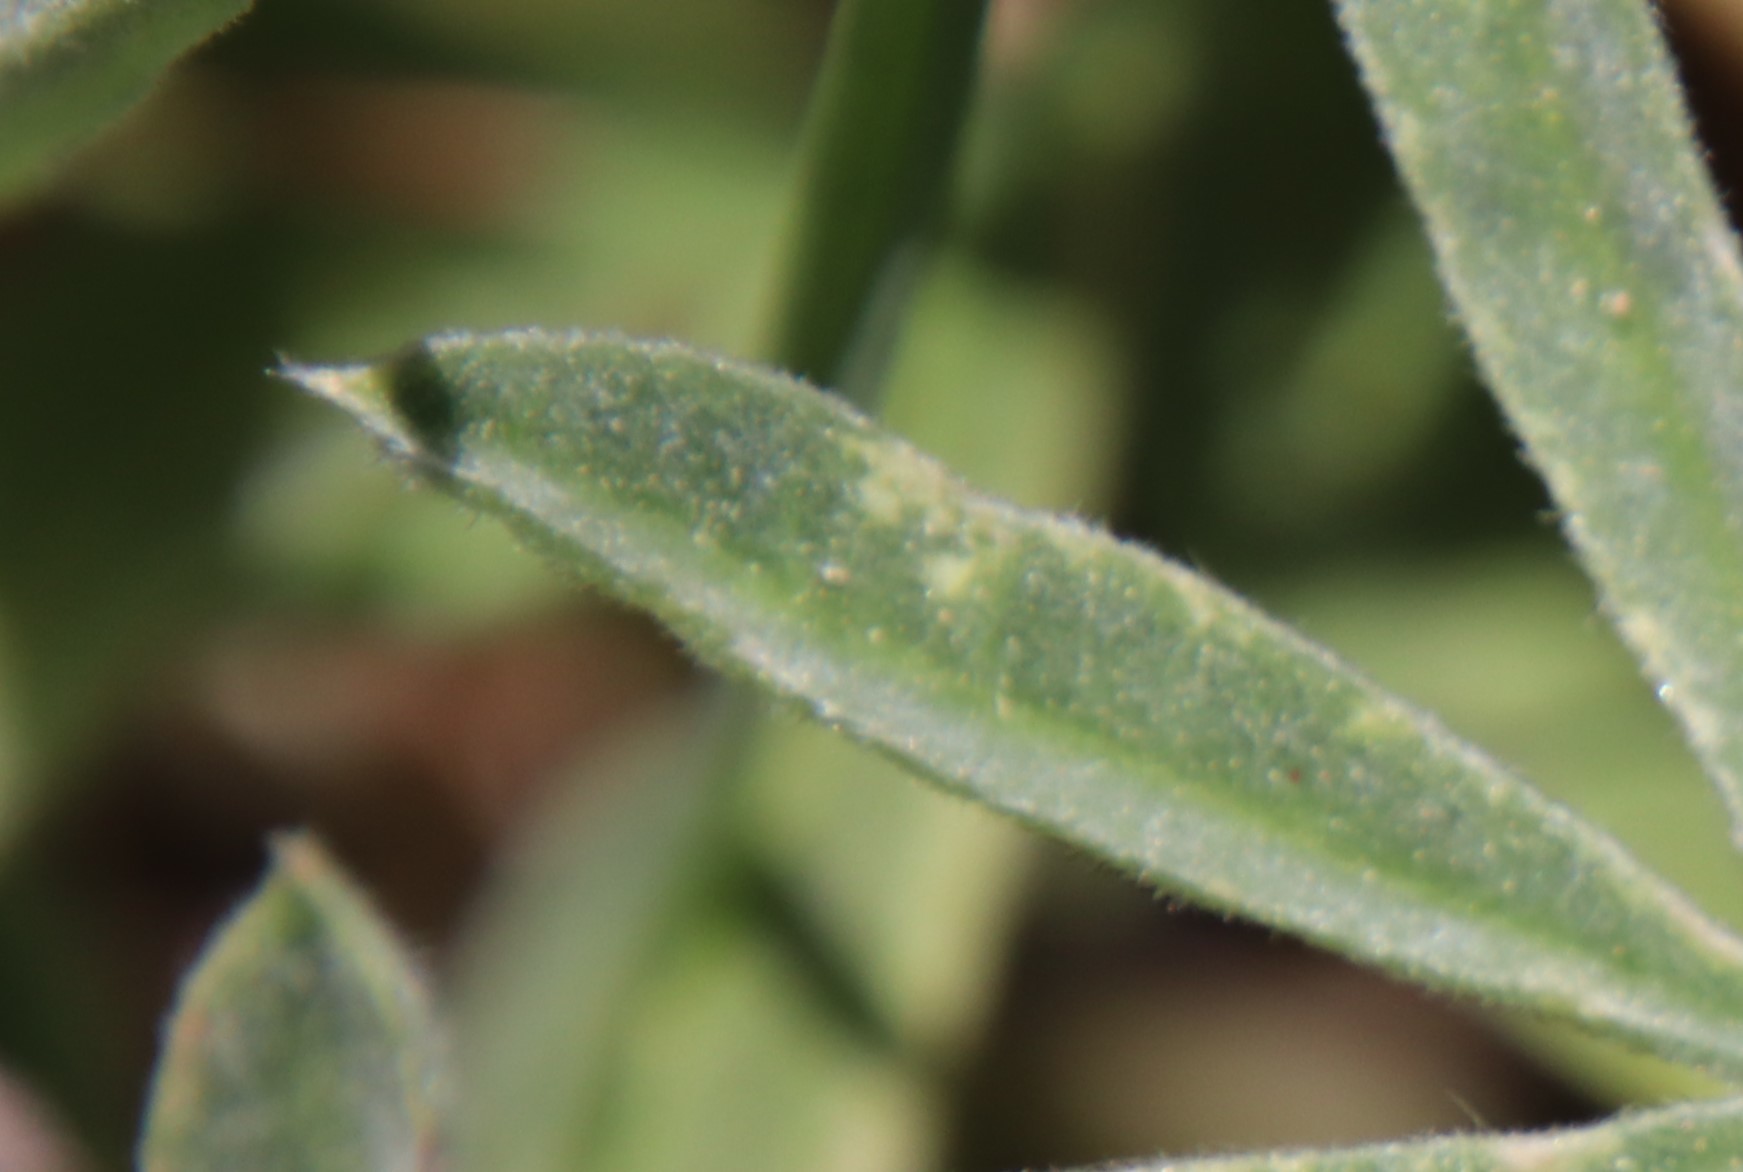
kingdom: Animalia
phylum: Arthropoda
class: Insecta
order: Lepidoptera
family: Lycaenidae
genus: Icaricia
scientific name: Icaricia icarioides
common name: Boisduval's blue
